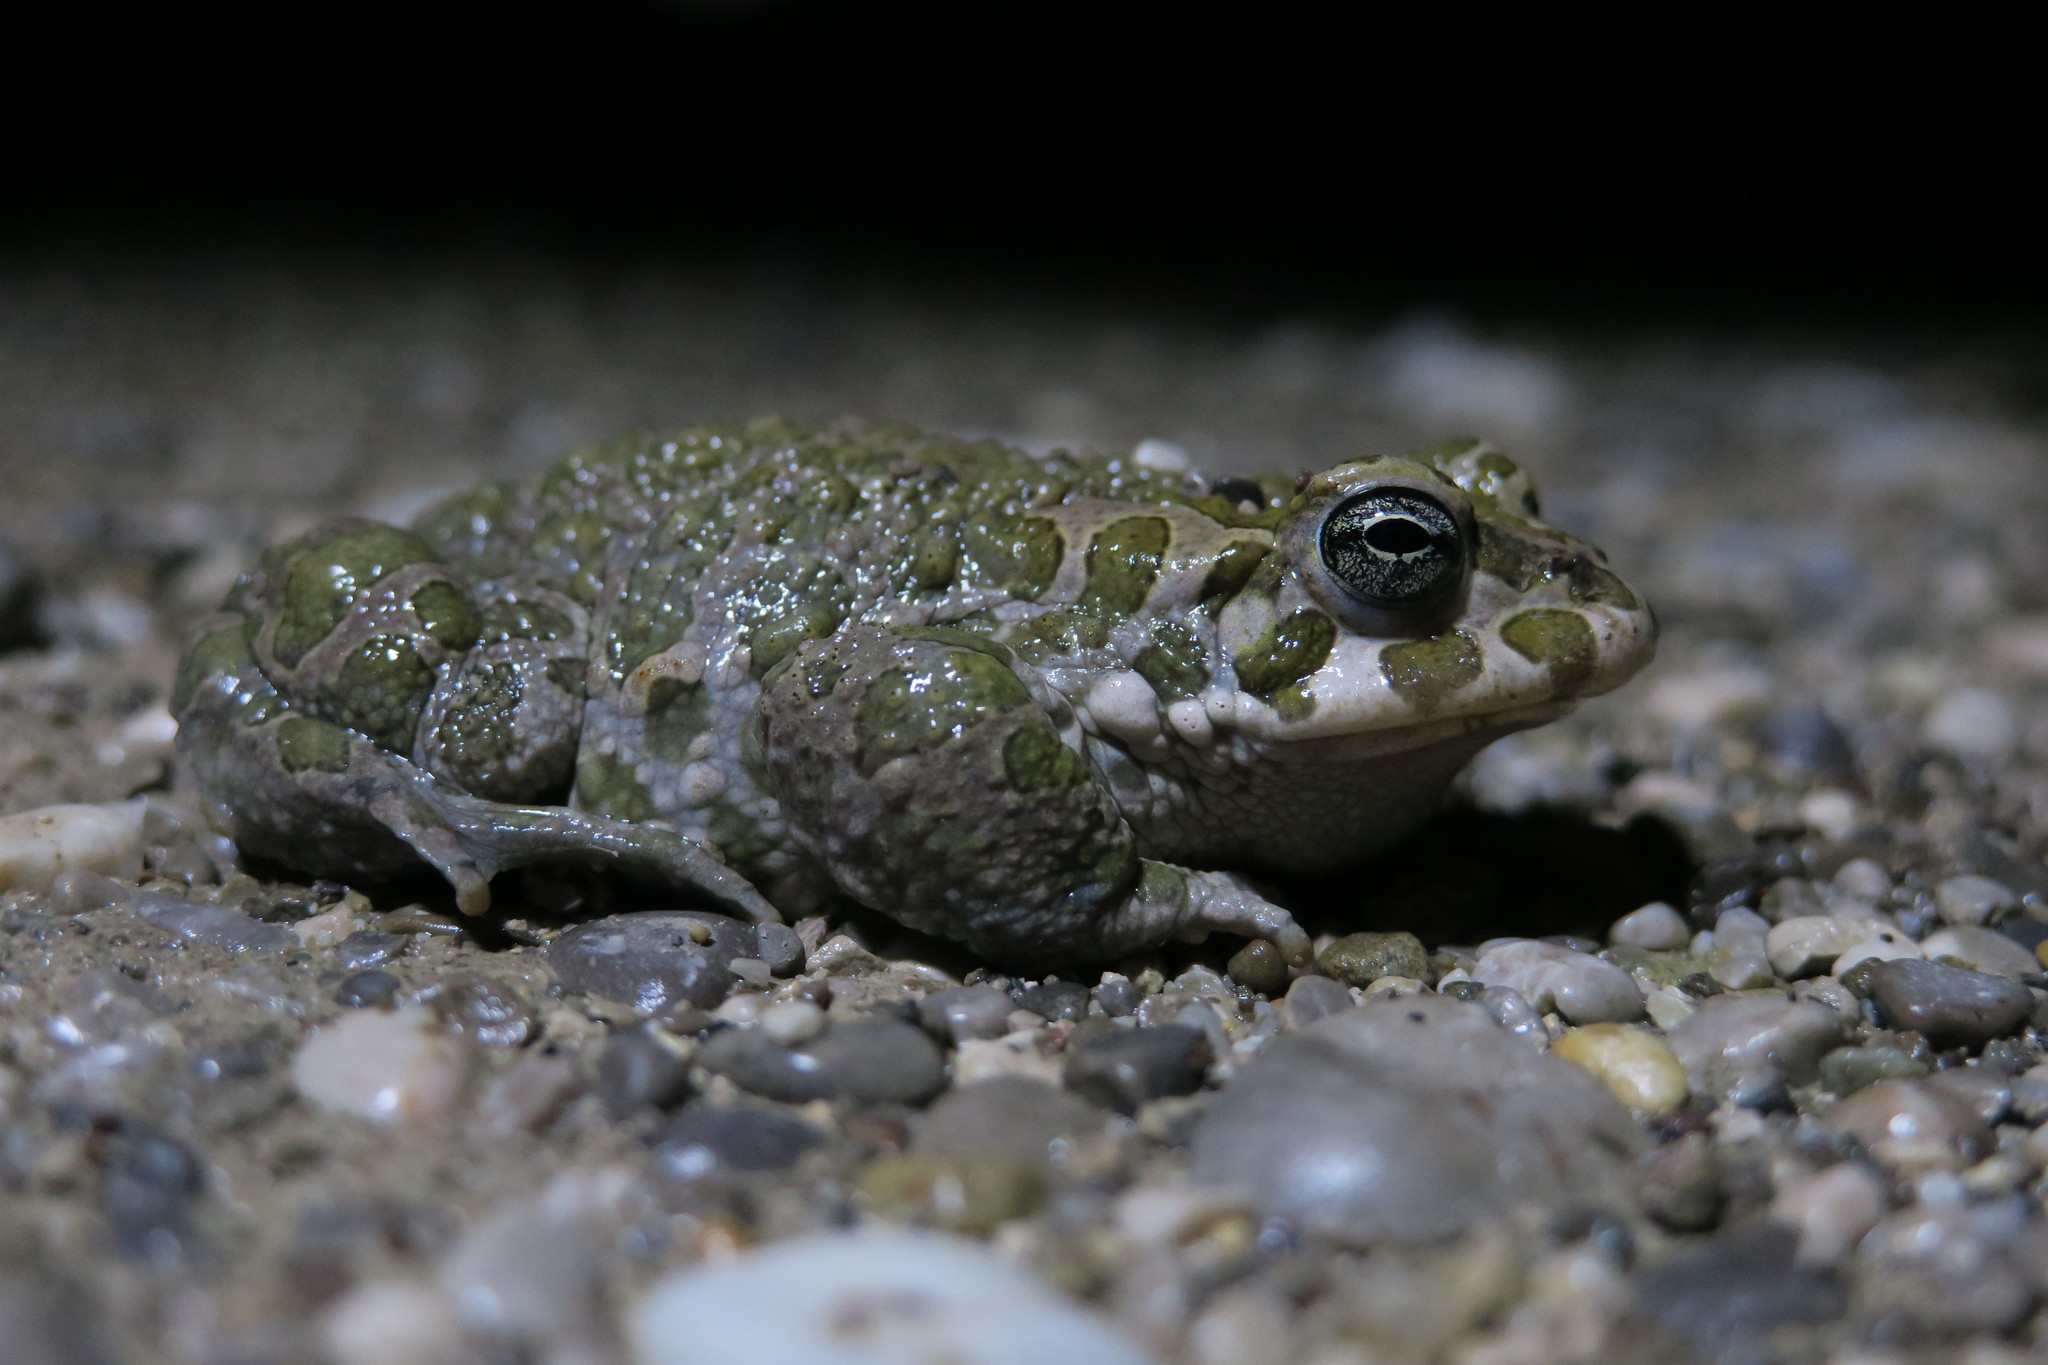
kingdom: Animalia
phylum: Chordata
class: Amphibia
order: Anura
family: Bufonidae
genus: Bufotes
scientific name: Bufotes viridis
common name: European green toad
